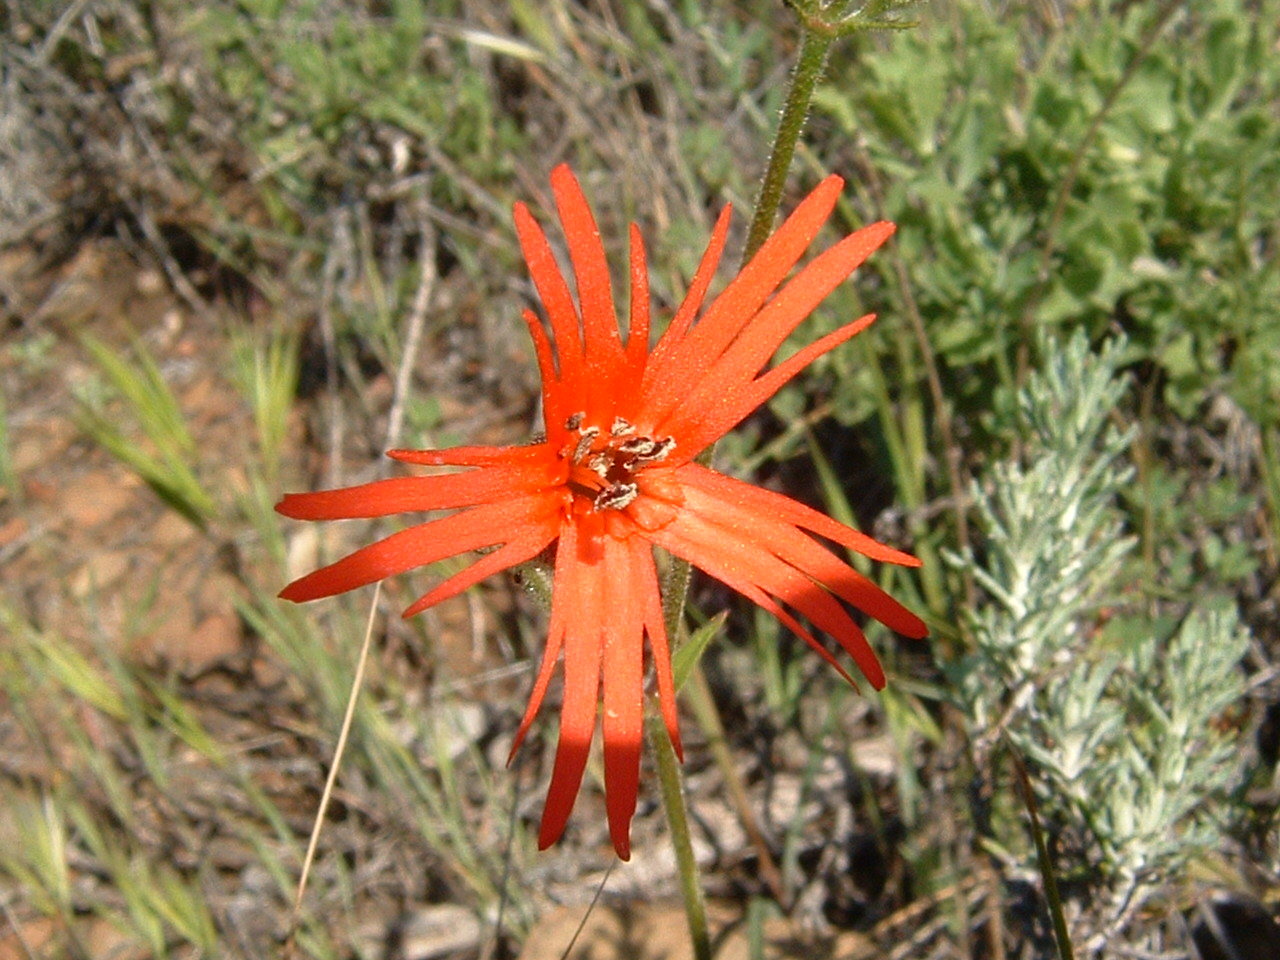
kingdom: Plantae
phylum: Tracheophyta
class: Magnoliopsida
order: Caryophyllales
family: Caryophyllaceae
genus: Silene
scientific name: Silene laciniata
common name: Indian-pink
